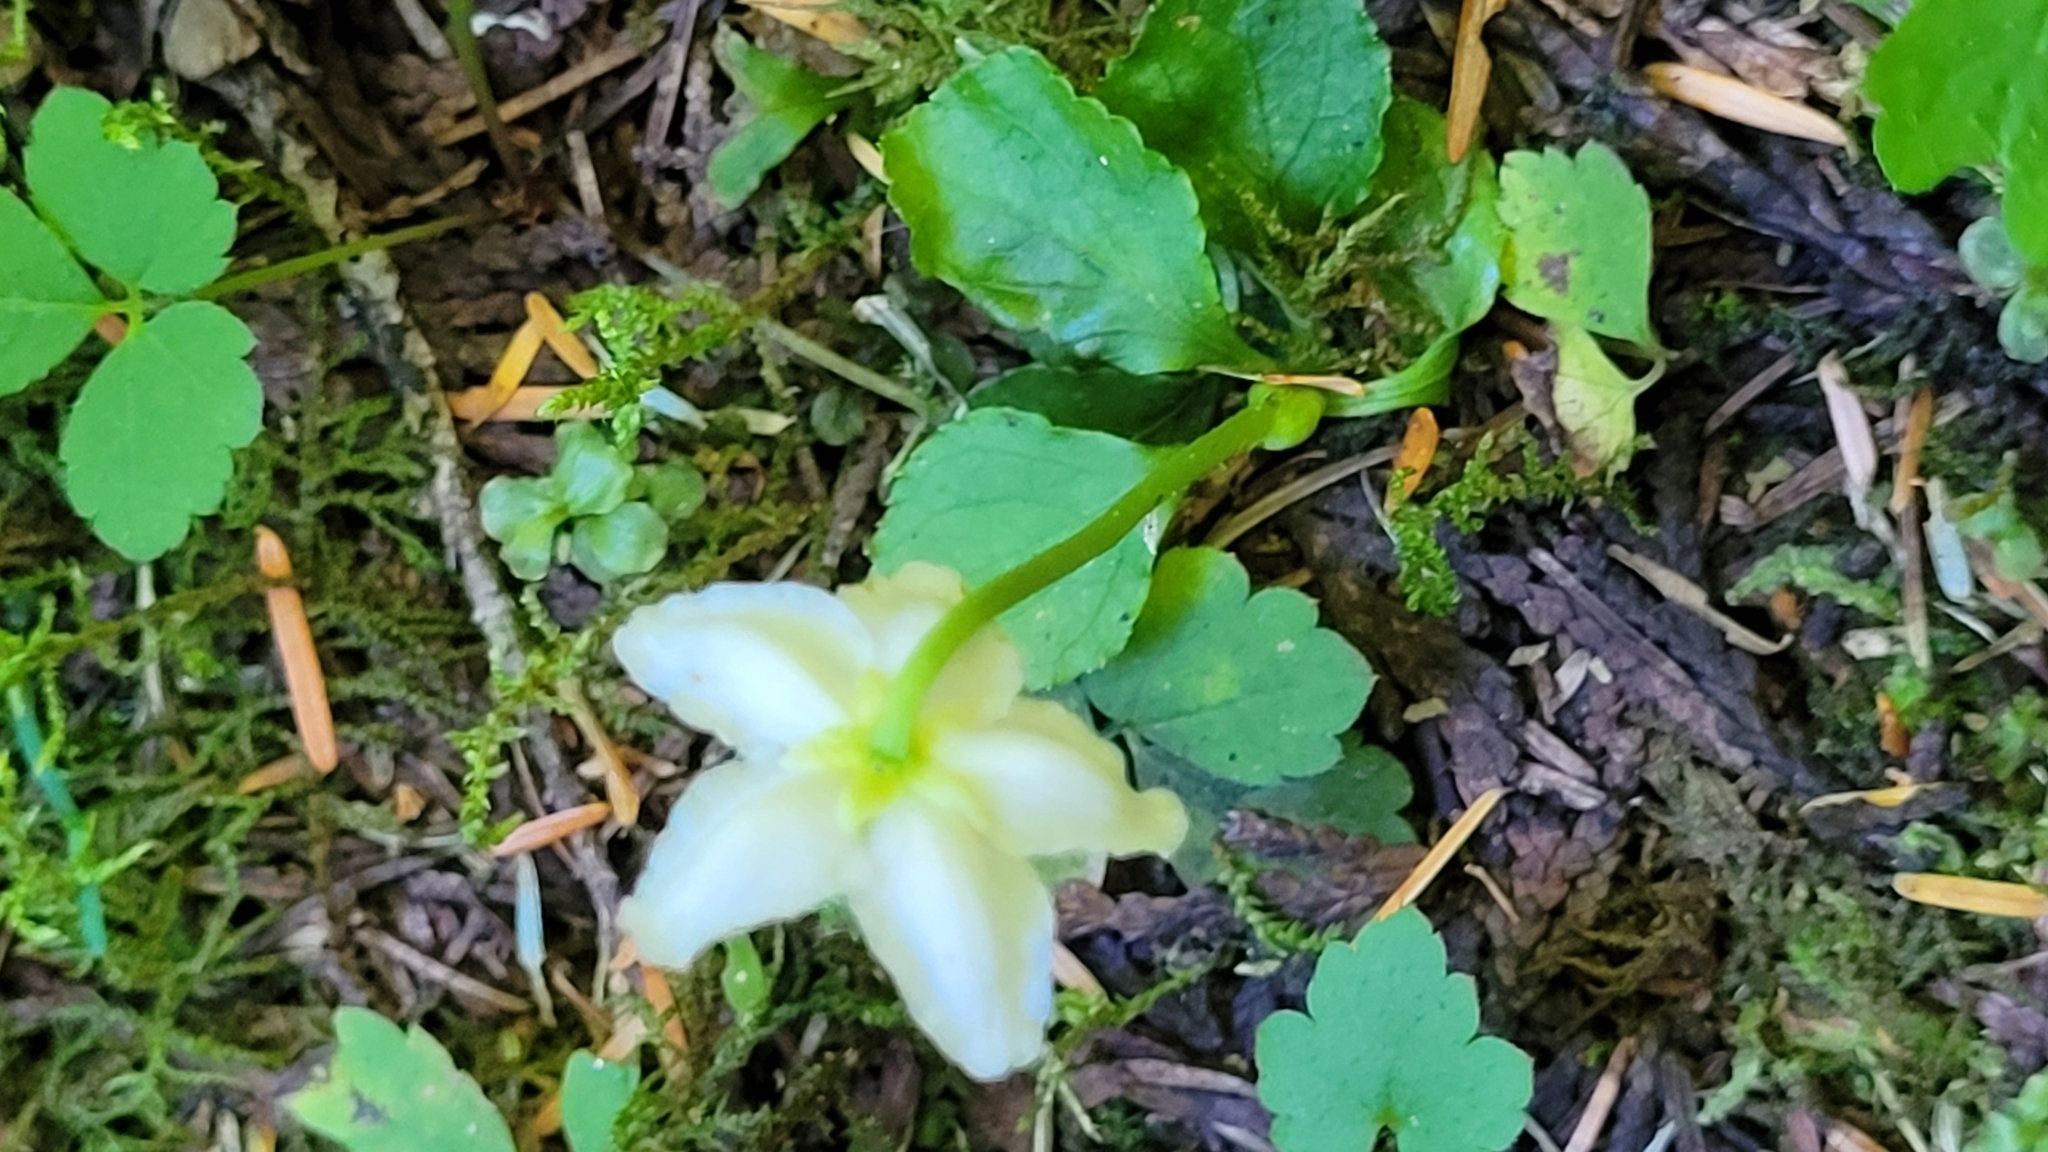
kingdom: Plantae
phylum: Tracheophyta
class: Magnoliopsida
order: Ericales
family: Ericaceae
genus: Moneses
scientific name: Moneses uniflora
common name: One-flowered wintergreen
